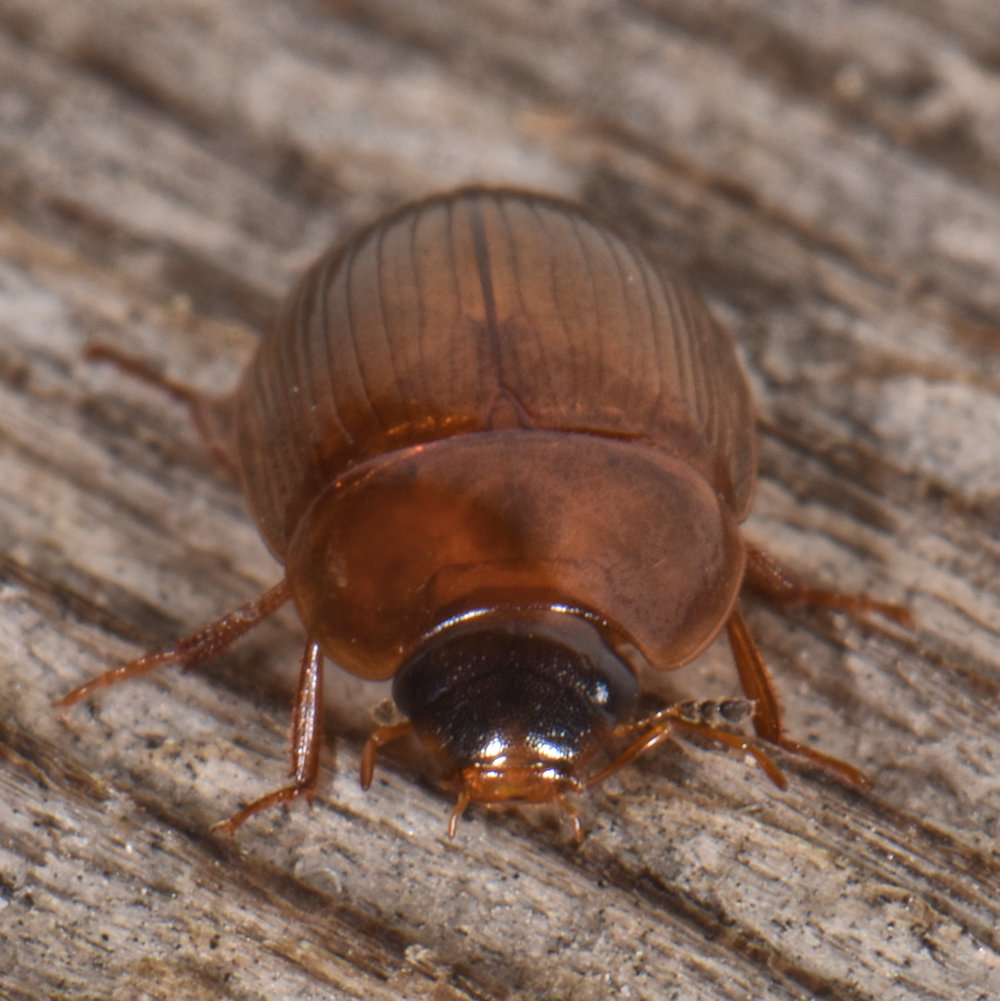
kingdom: Animalia
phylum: Arthropoda
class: Insecta
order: Coleoptera
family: Hydrophilidae
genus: Cymbiodyta
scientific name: Cymbiodyta bifida
